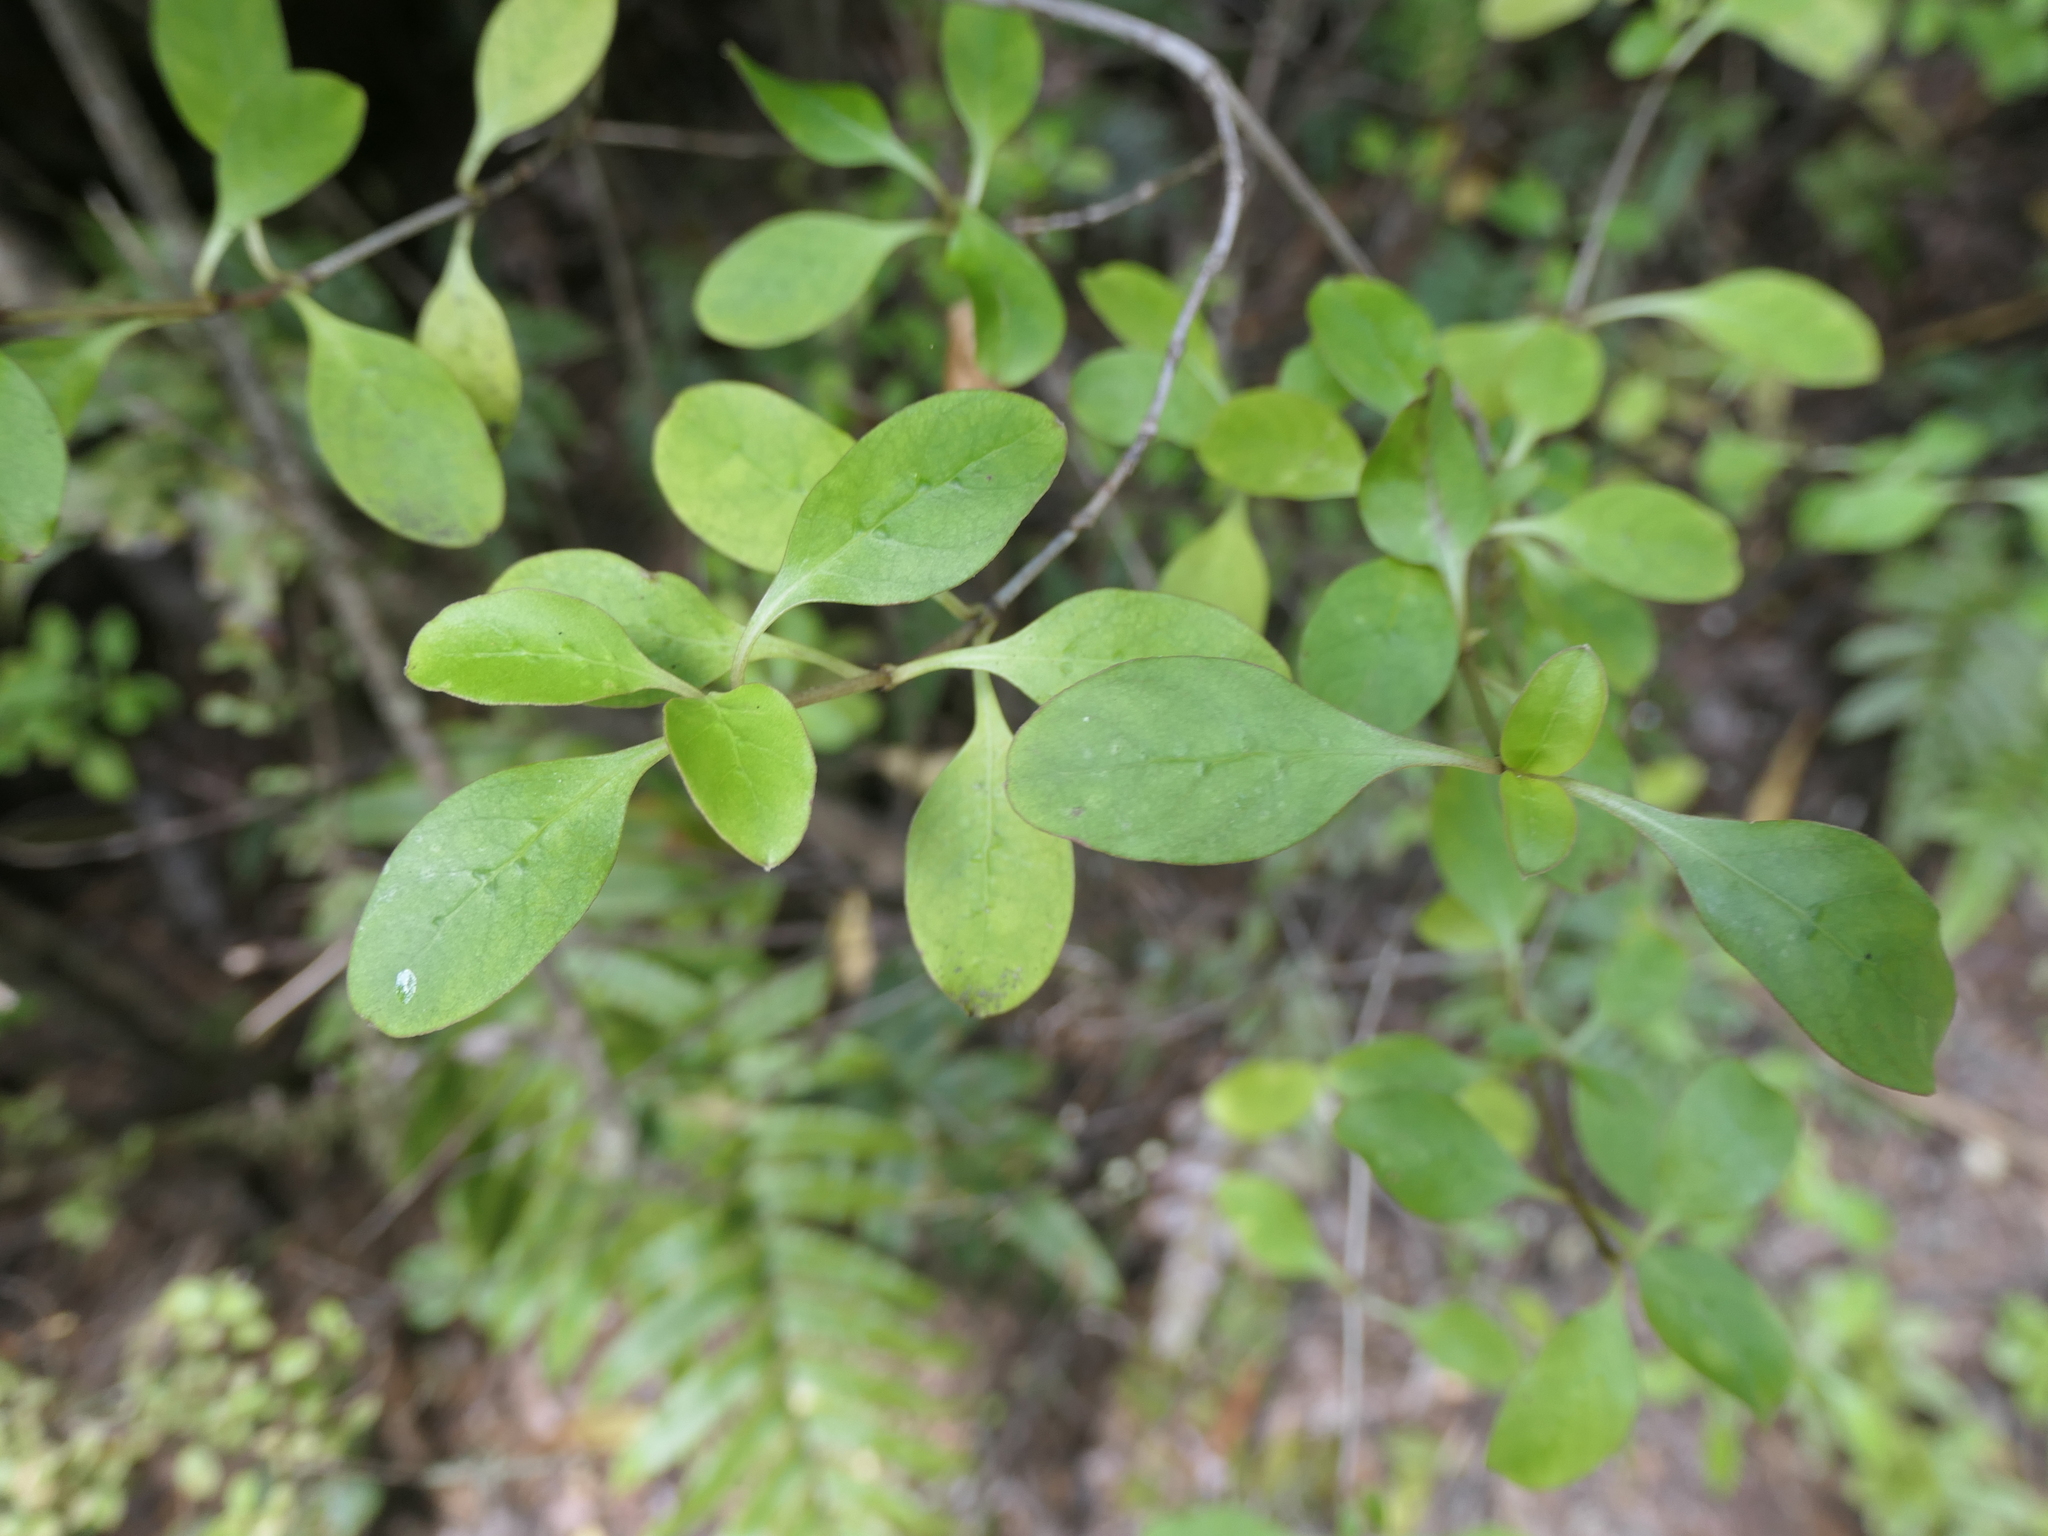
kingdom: Plantae
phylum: Tracheophyta
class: Magnoliopsida
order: Gentianales
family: Rubiaceae
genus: Coprosma
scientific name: Coprosma foetidissima
